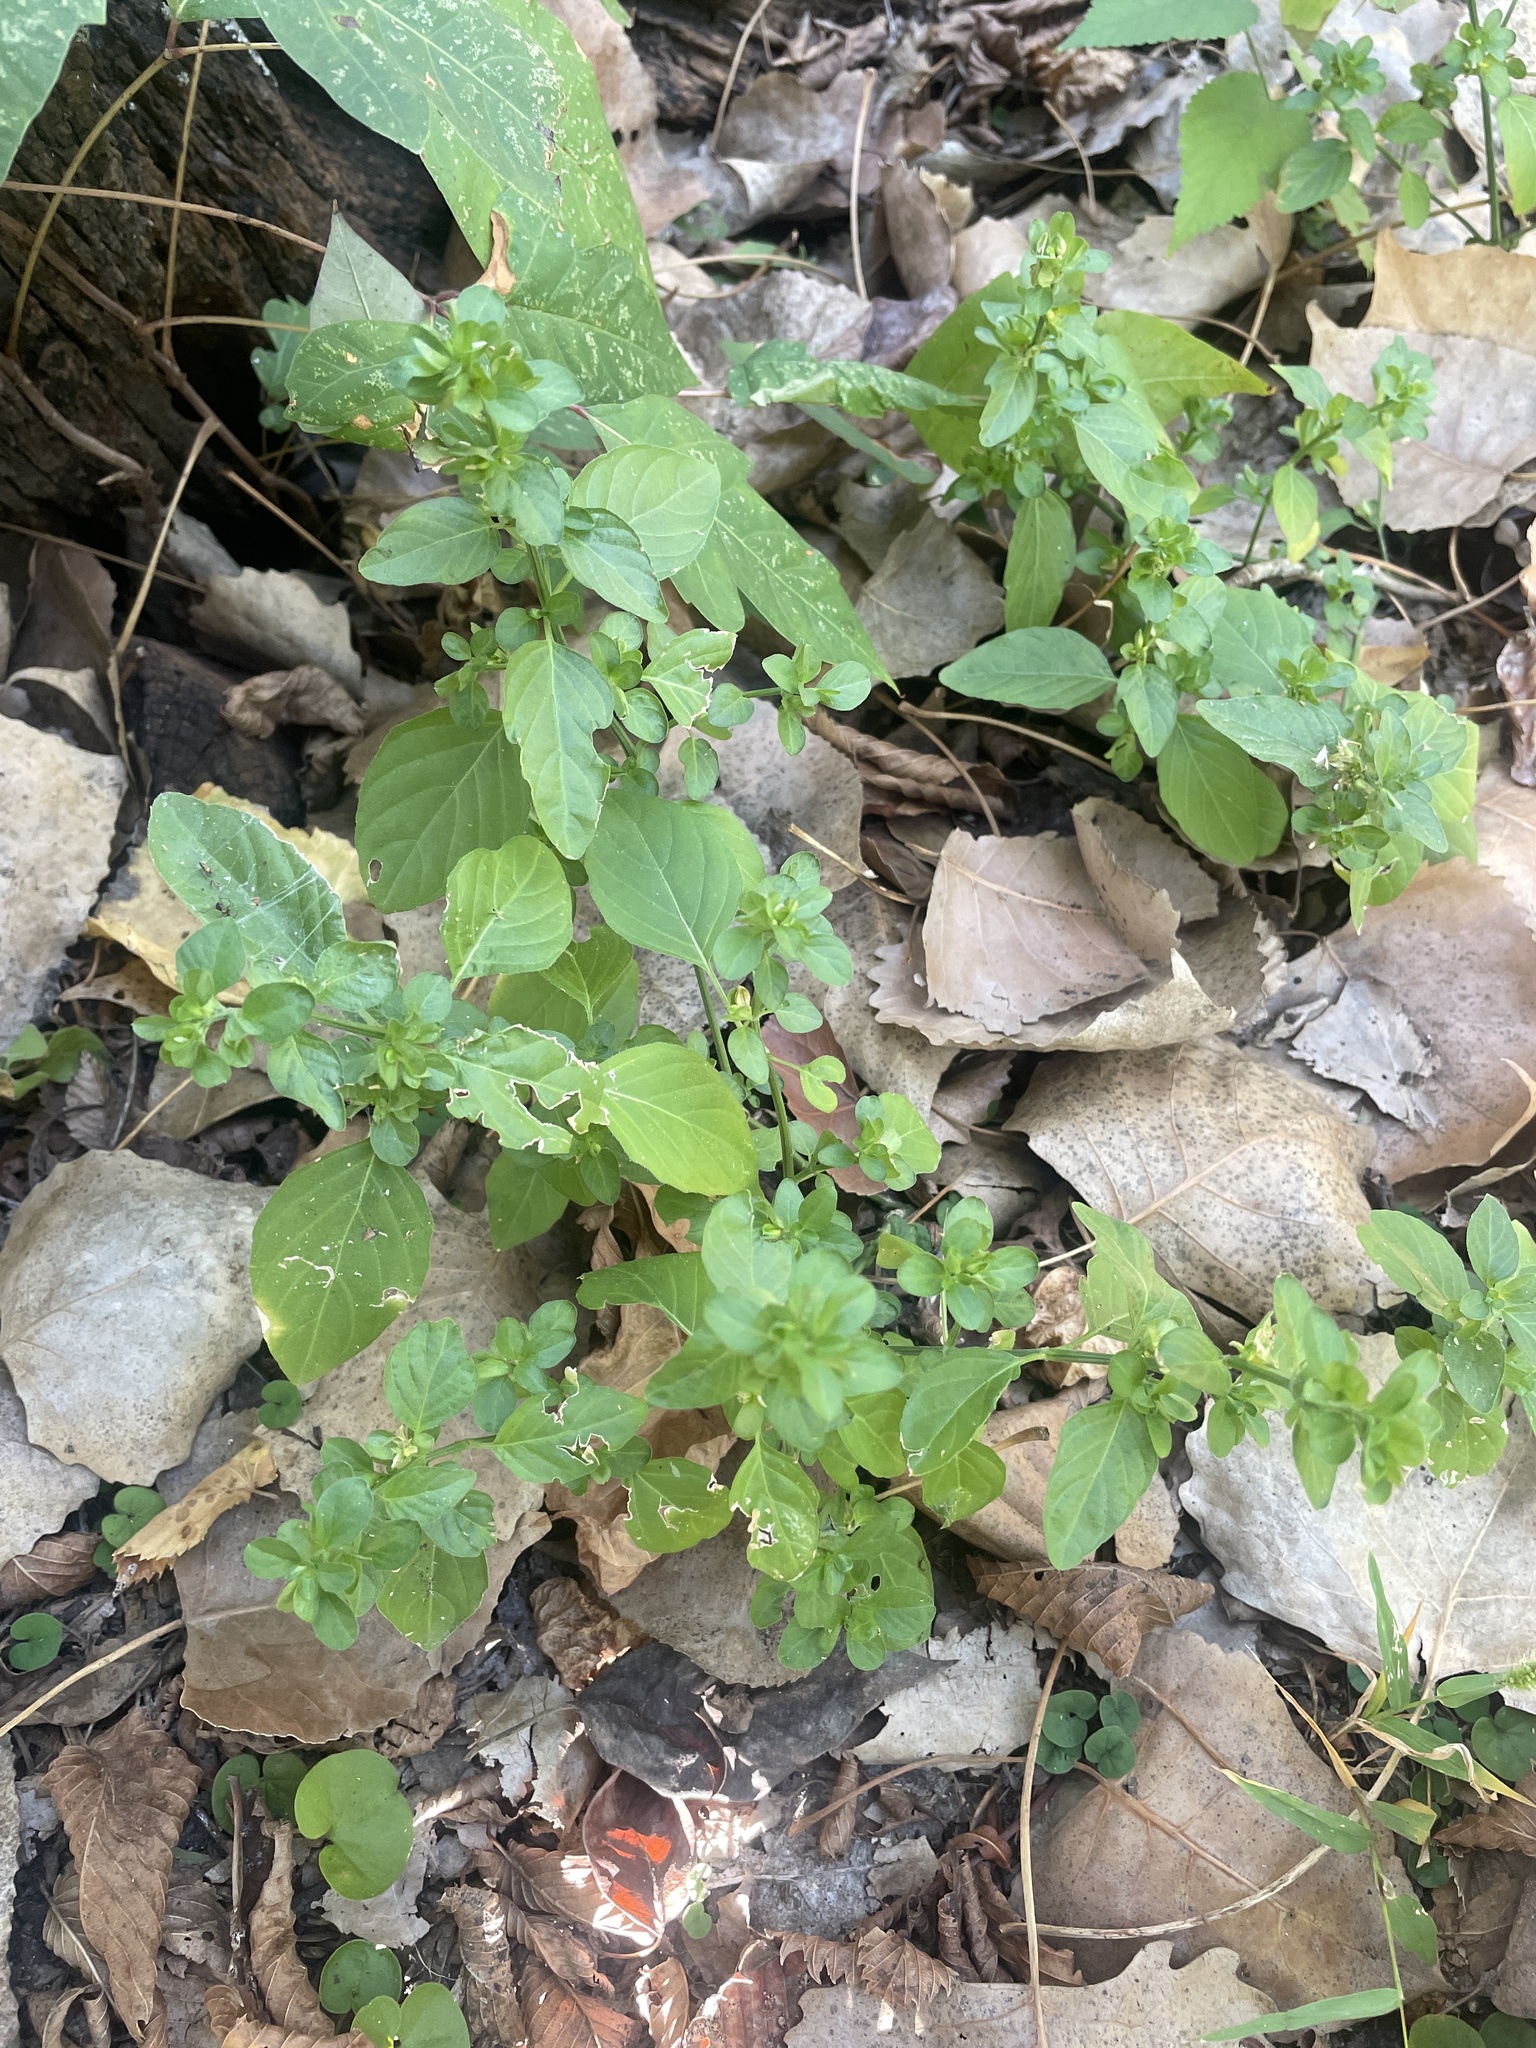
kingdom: Plantae
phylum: Tracheophyta
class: Magnoliopsida
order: Lamiales
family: Acanthaceae
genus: Dicliptera
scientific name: Dicliptera brachiata
